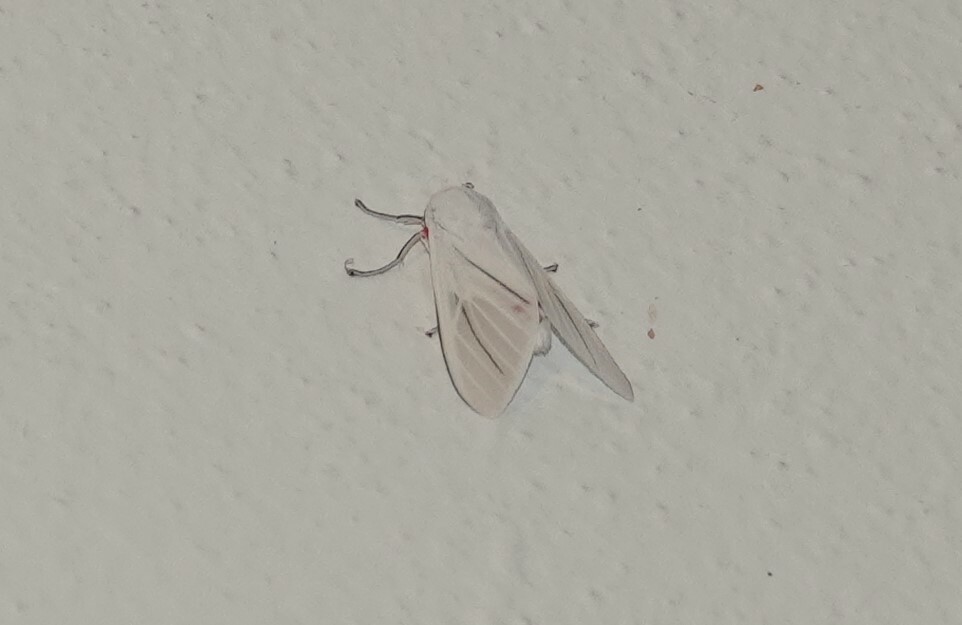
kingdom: Animalia
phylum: Arthropoda
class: Insecta
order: Lepidoptera
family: Erebidae
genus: Eupseudosoma
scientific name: Eupseudosoma involuta
